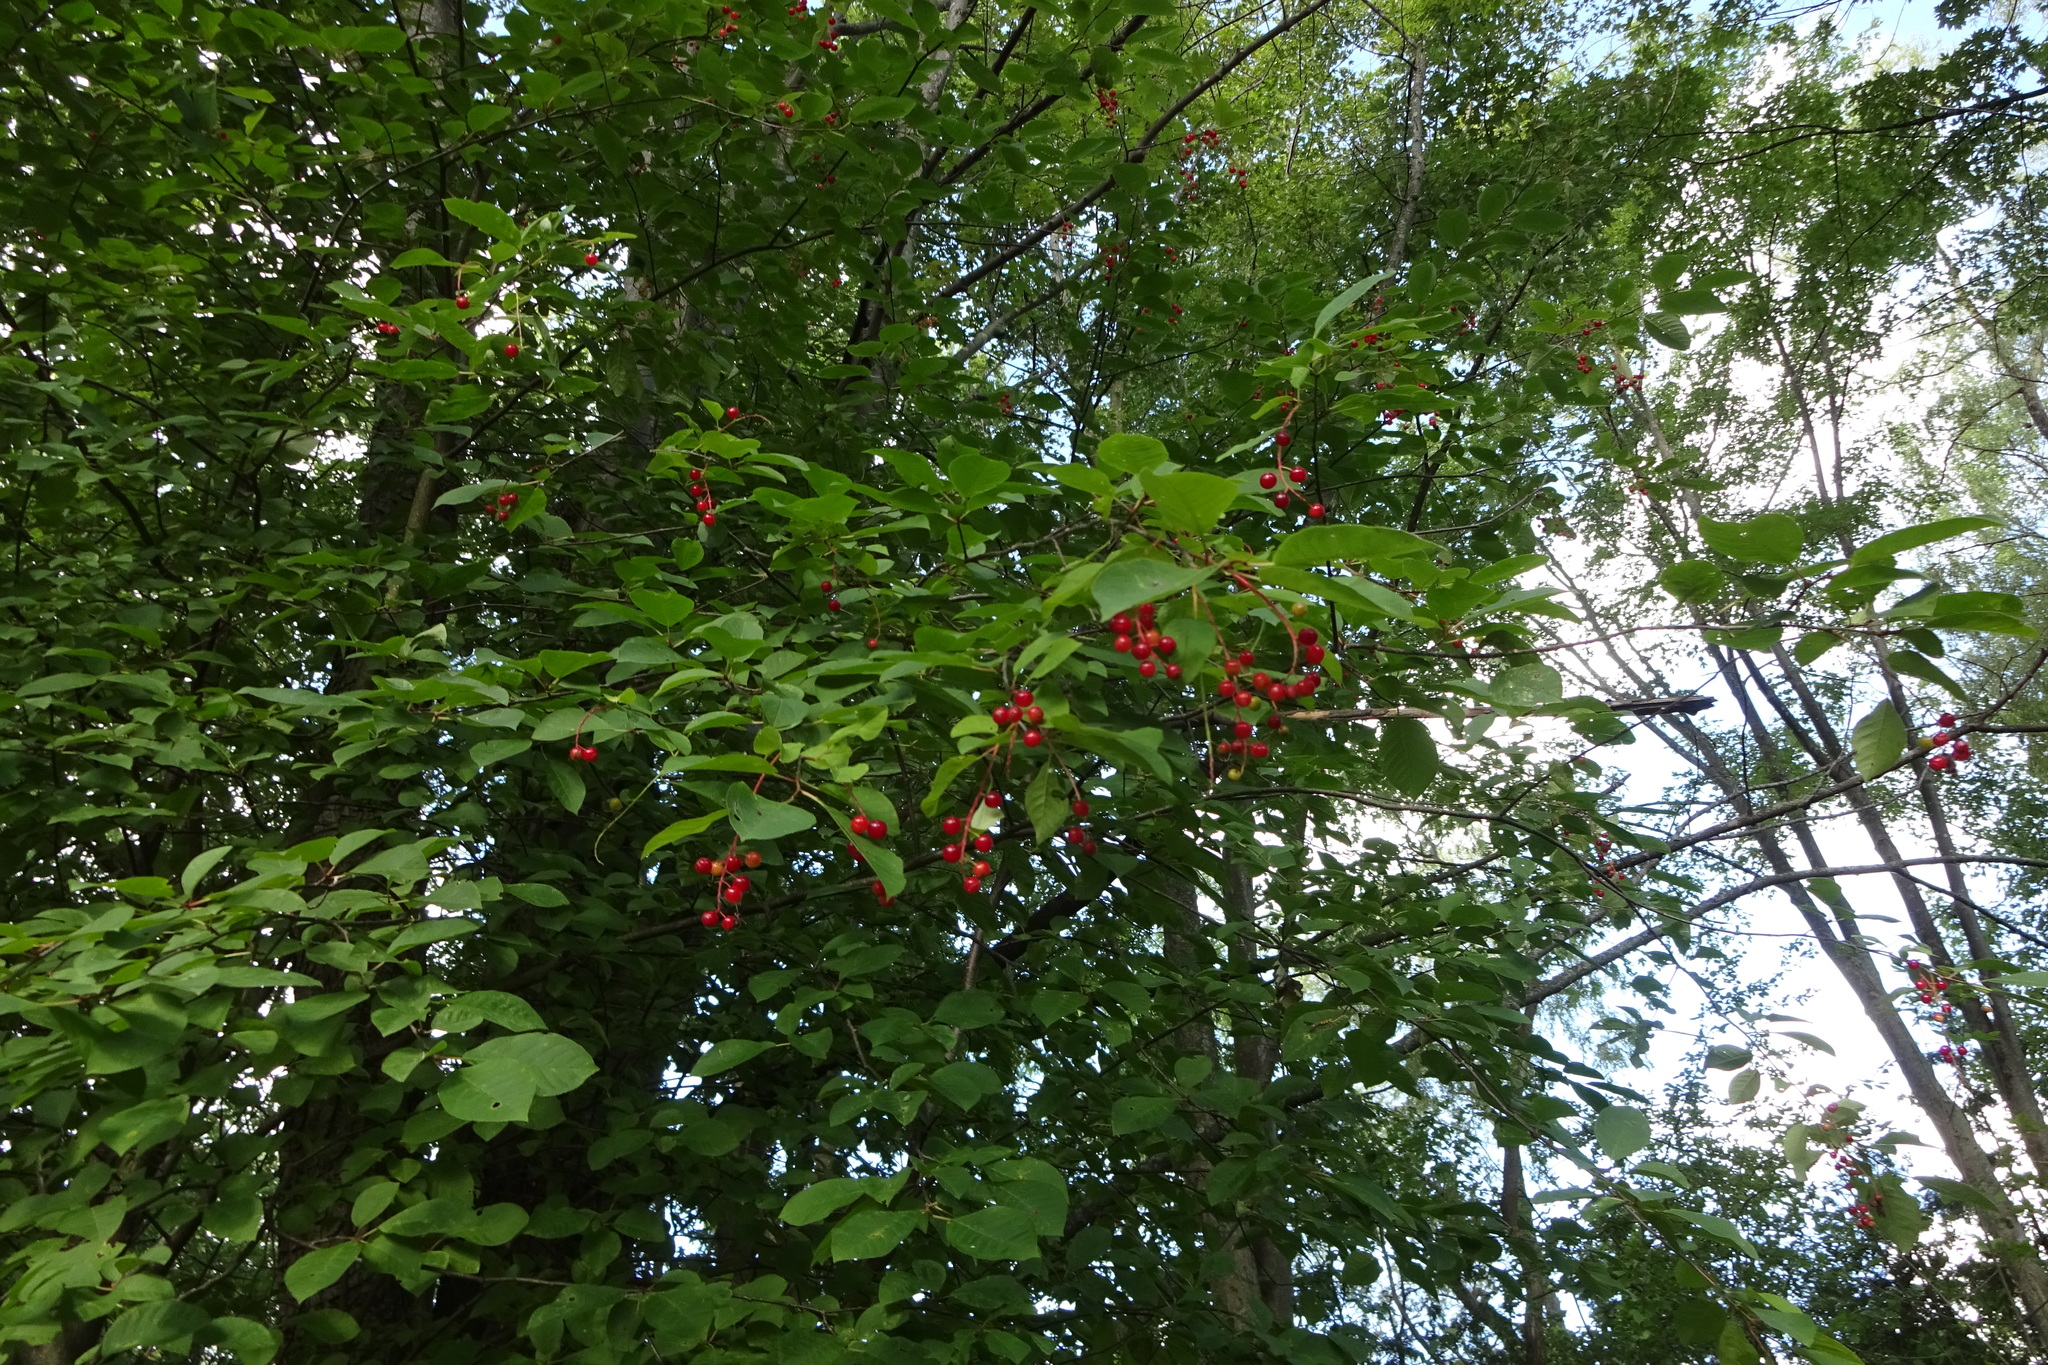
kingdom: Plantae
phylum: Tracheophyta
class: Magnoliopsida
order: Rosales
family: Rosaceae
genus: Prunus
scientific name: Prunus virginiana
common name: Chokecherry
